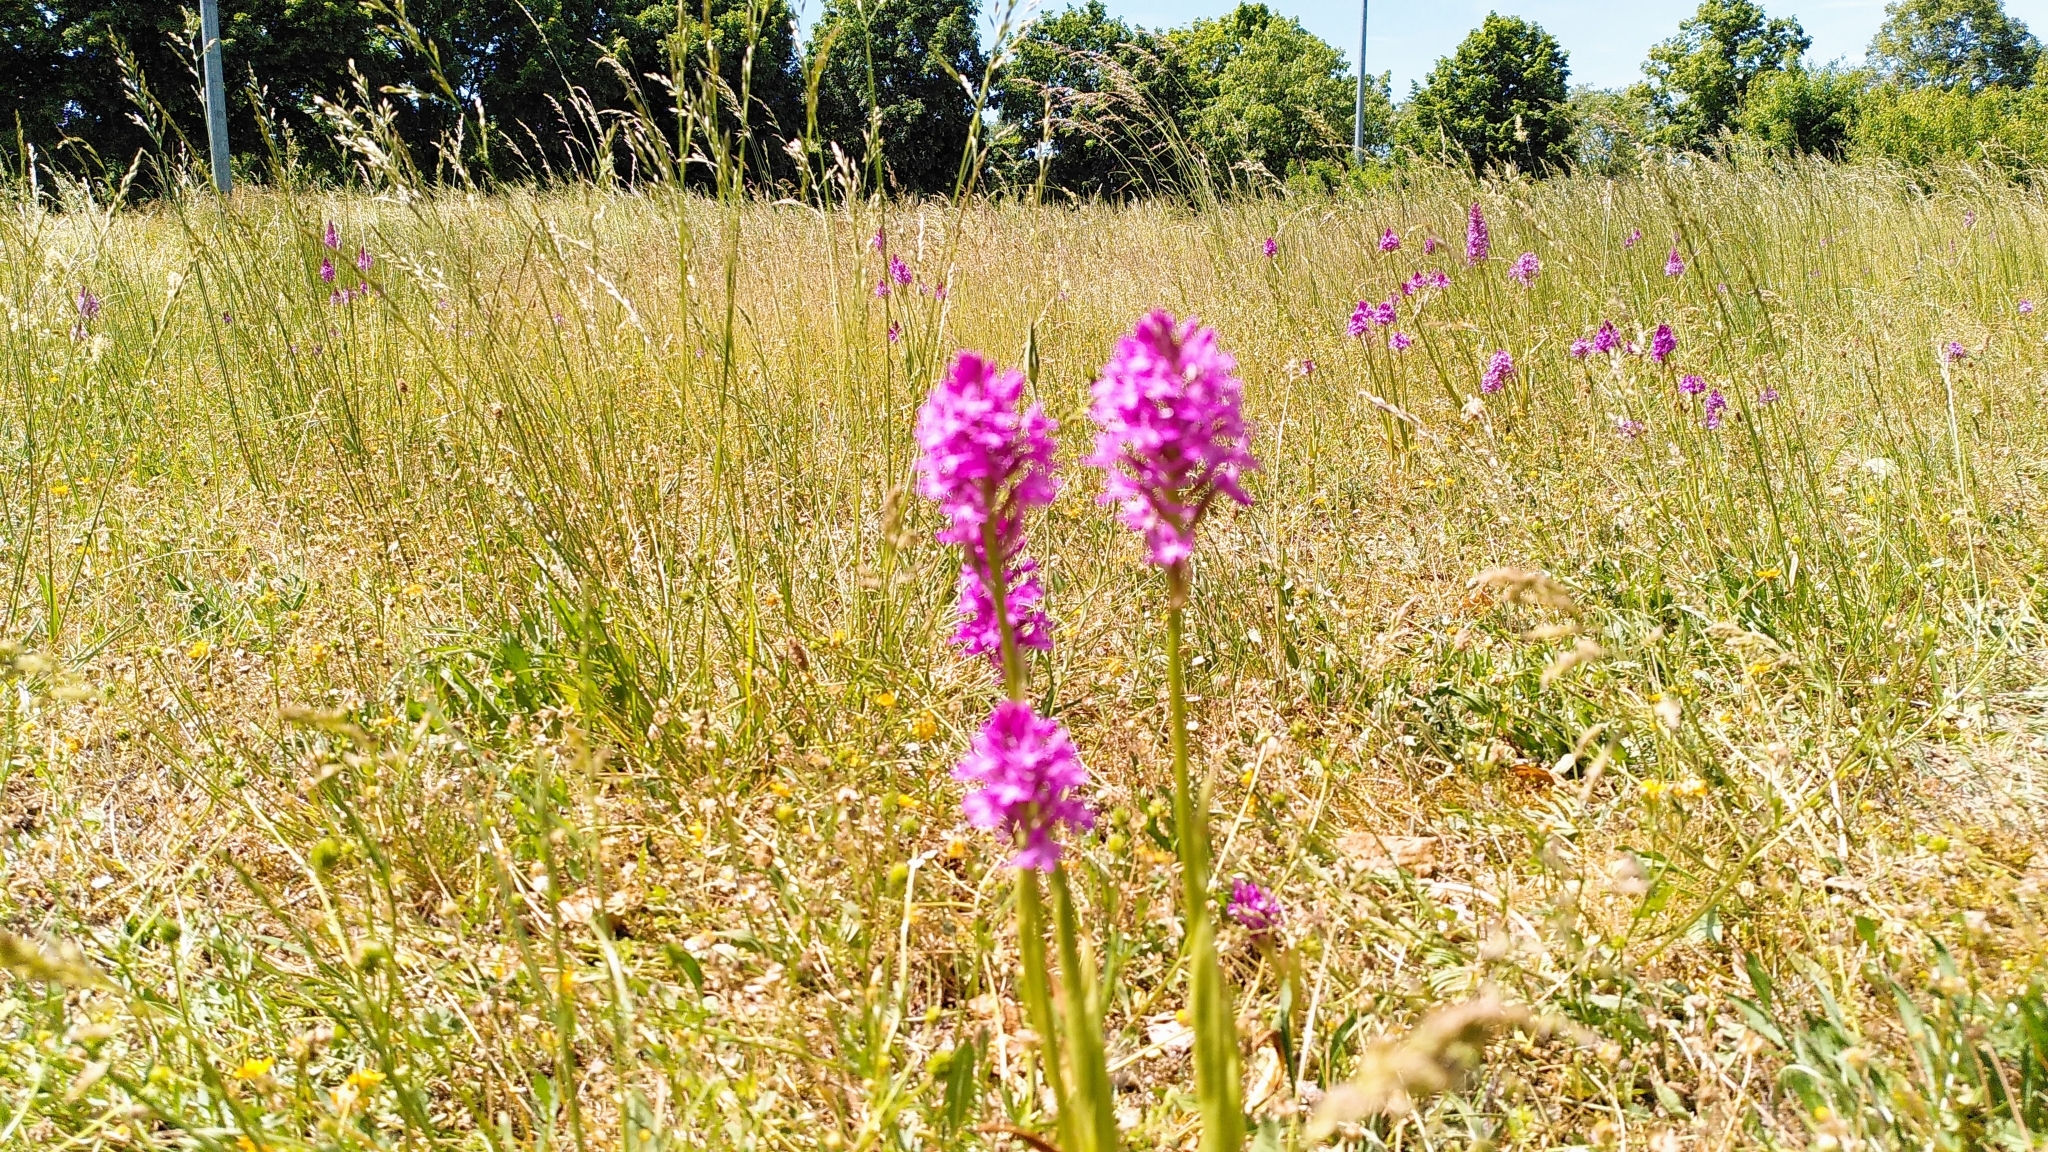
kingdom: Plantae
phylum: Tracheophyta
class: Liliopsida
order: Asparagales
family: Orchidaceae
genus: Anacamptis
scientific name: Anacamptis pyramidalis
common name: Pyramidal orchid
